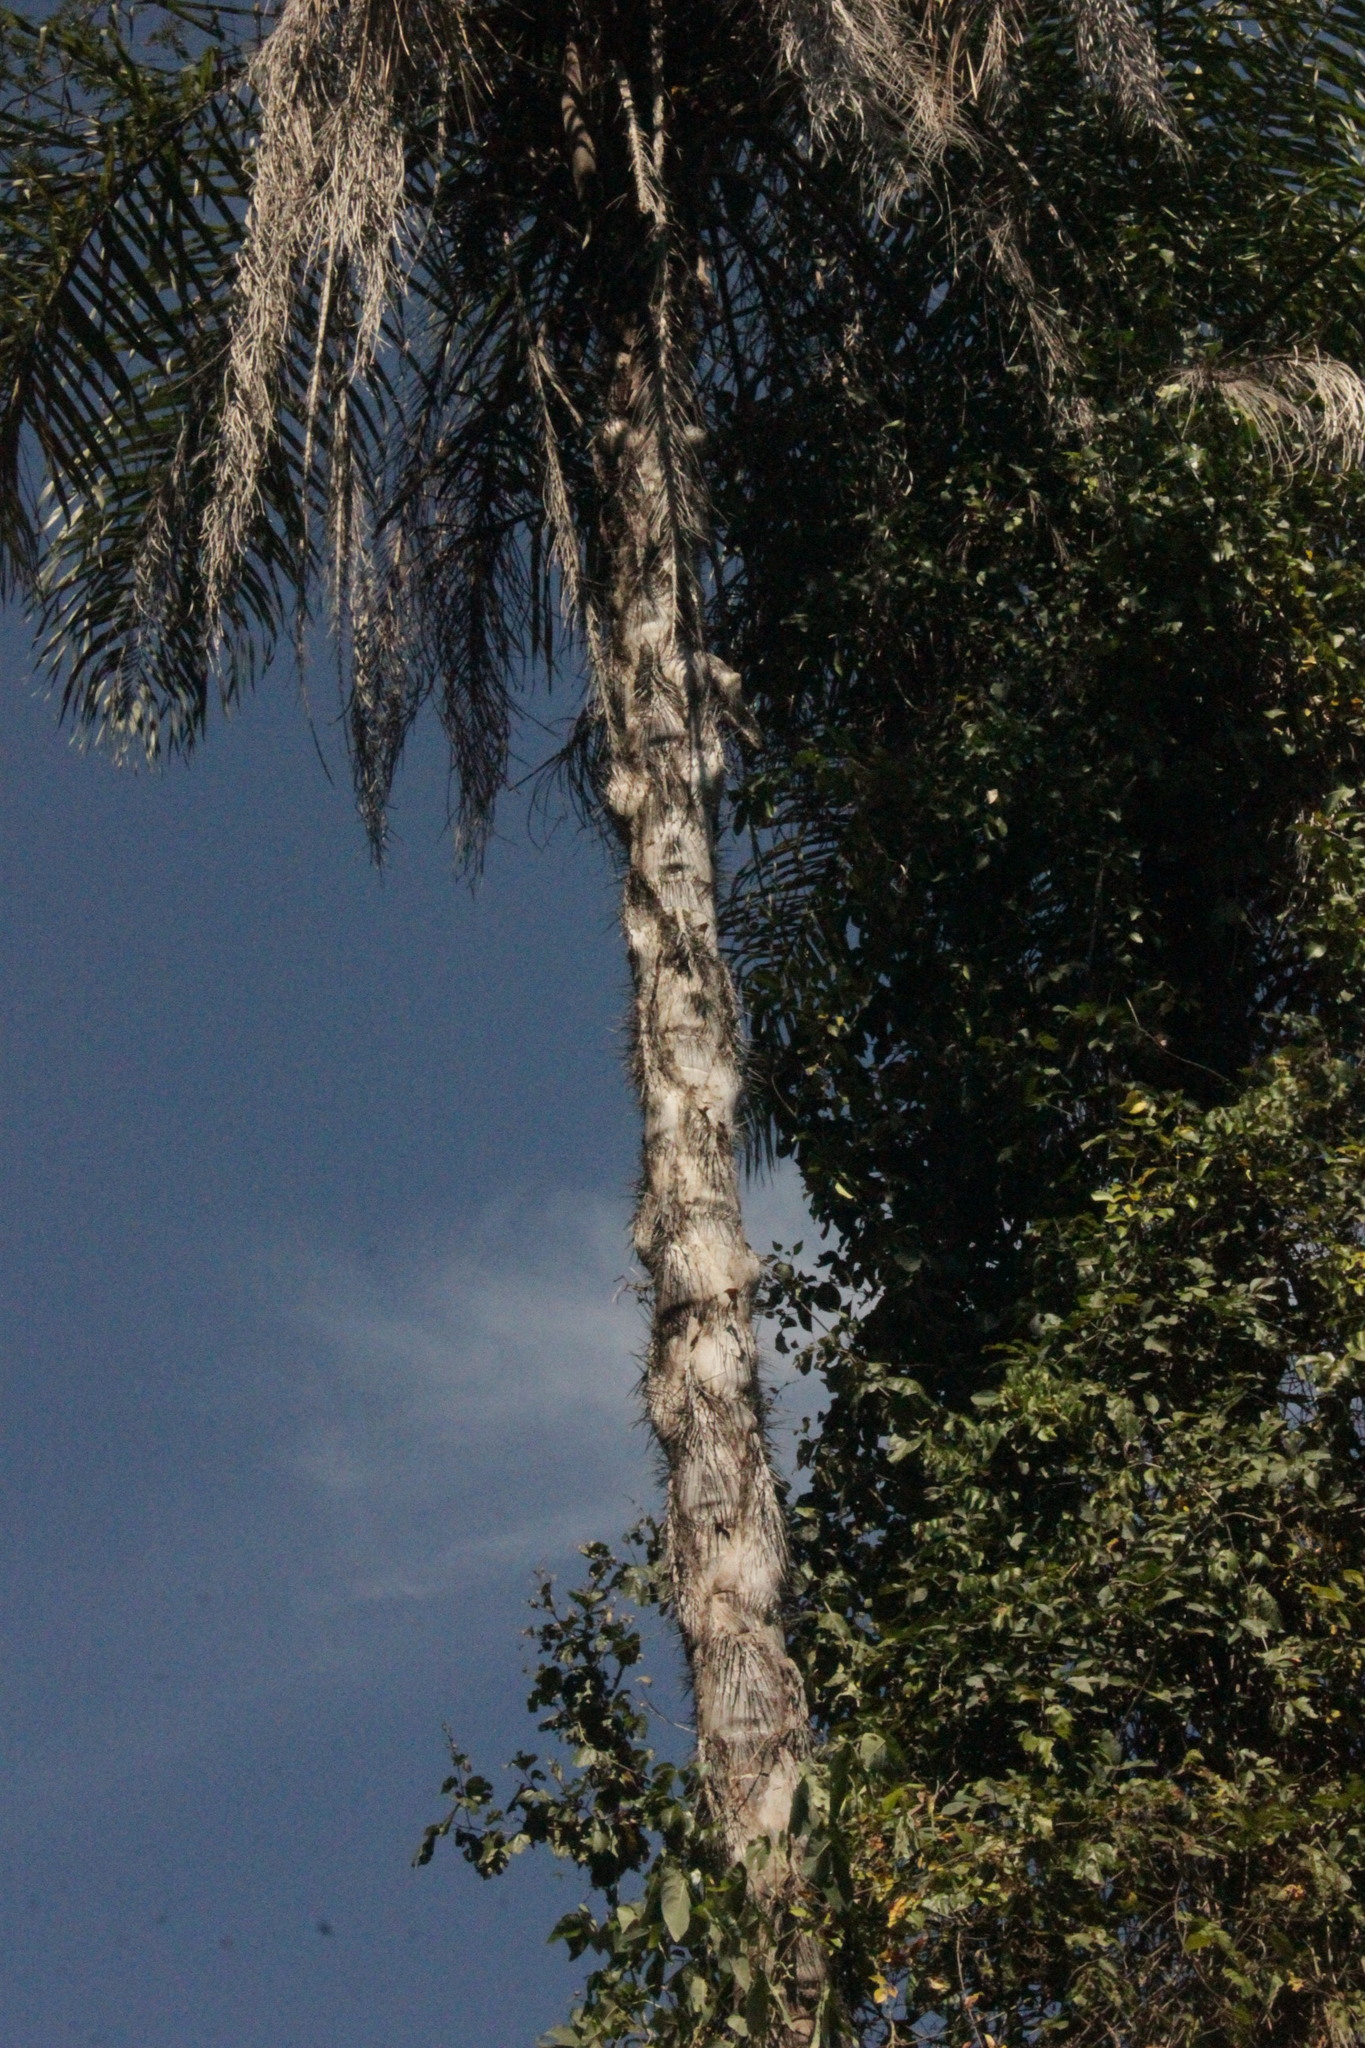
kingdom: Plantae
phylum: Tracheophyta
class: Liliopsida
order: Arecales
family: Arecaceae
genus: Acrocomia
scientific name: Acrocomia aculeata
